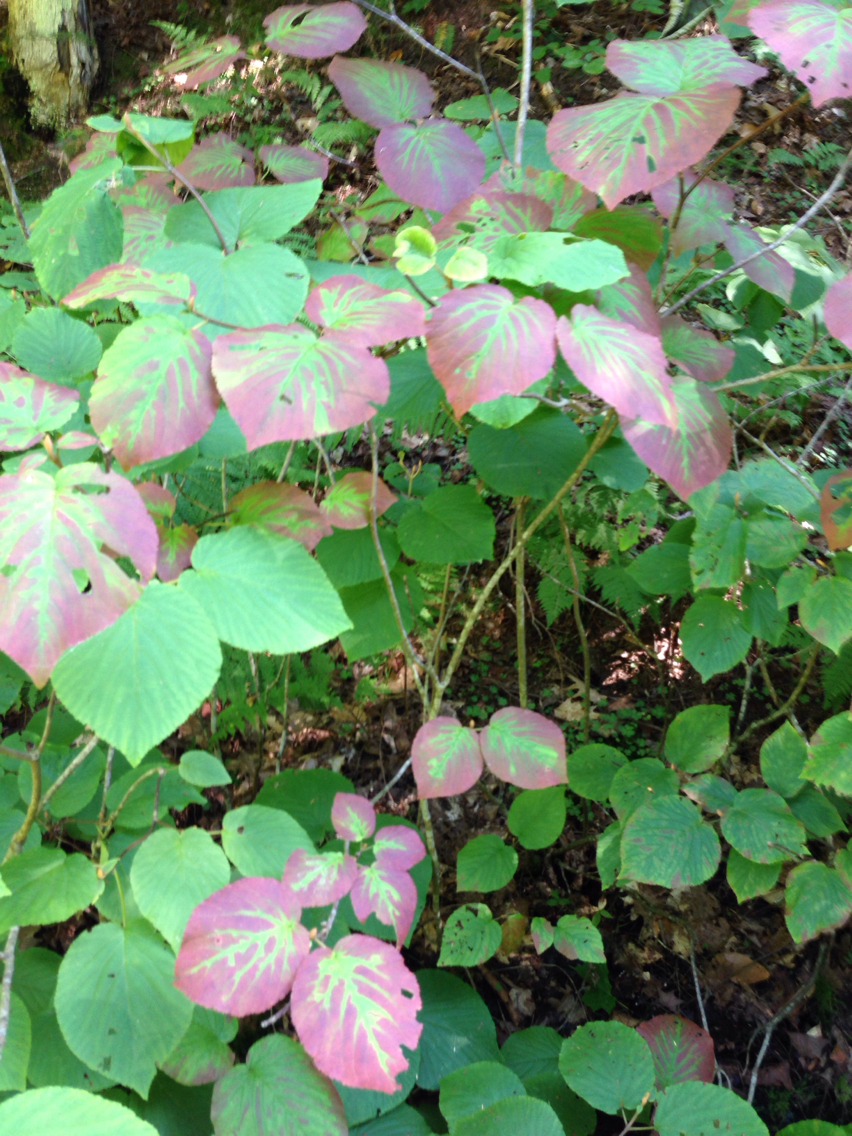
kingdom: Plantae
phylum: Tracheophyta
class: Magnoliopsida
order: Dipsacales
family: Viburnaceae
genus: Viburnum
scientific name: Viburnum lantanoides
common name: Hobblebush
